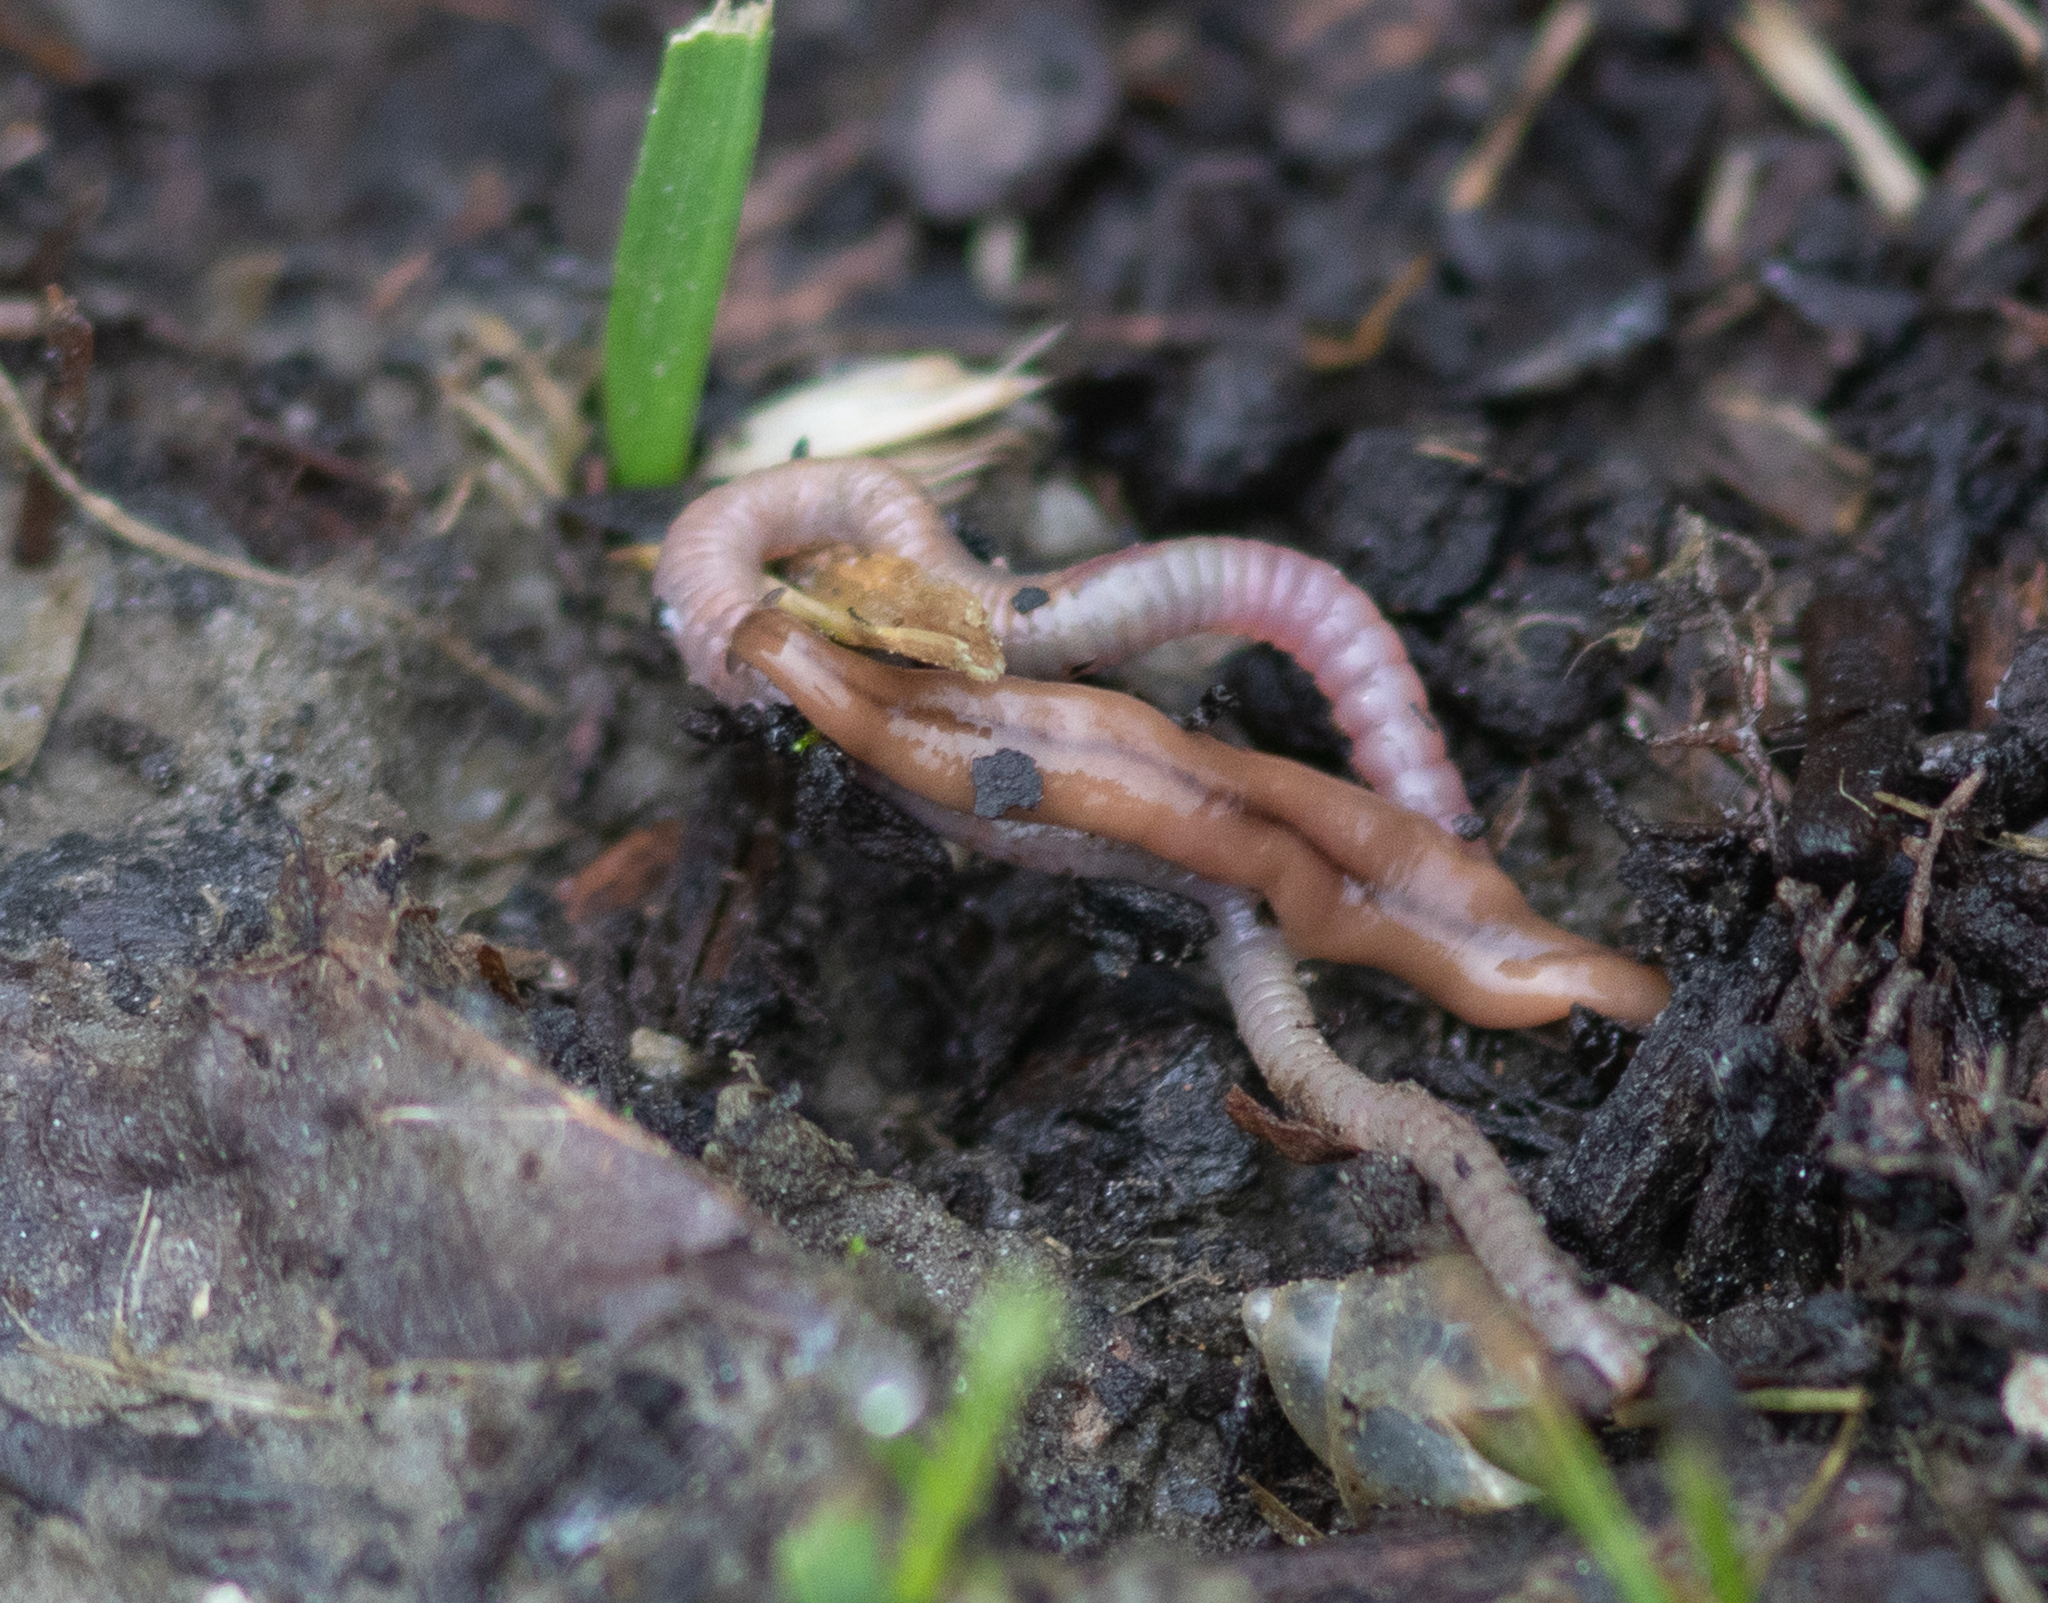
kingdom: Animalia
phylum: Platyhelminthes
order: Tricladida
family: Geoplanidae
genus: Bipalium
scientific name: Bipalium adventitium
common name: Land planarian
